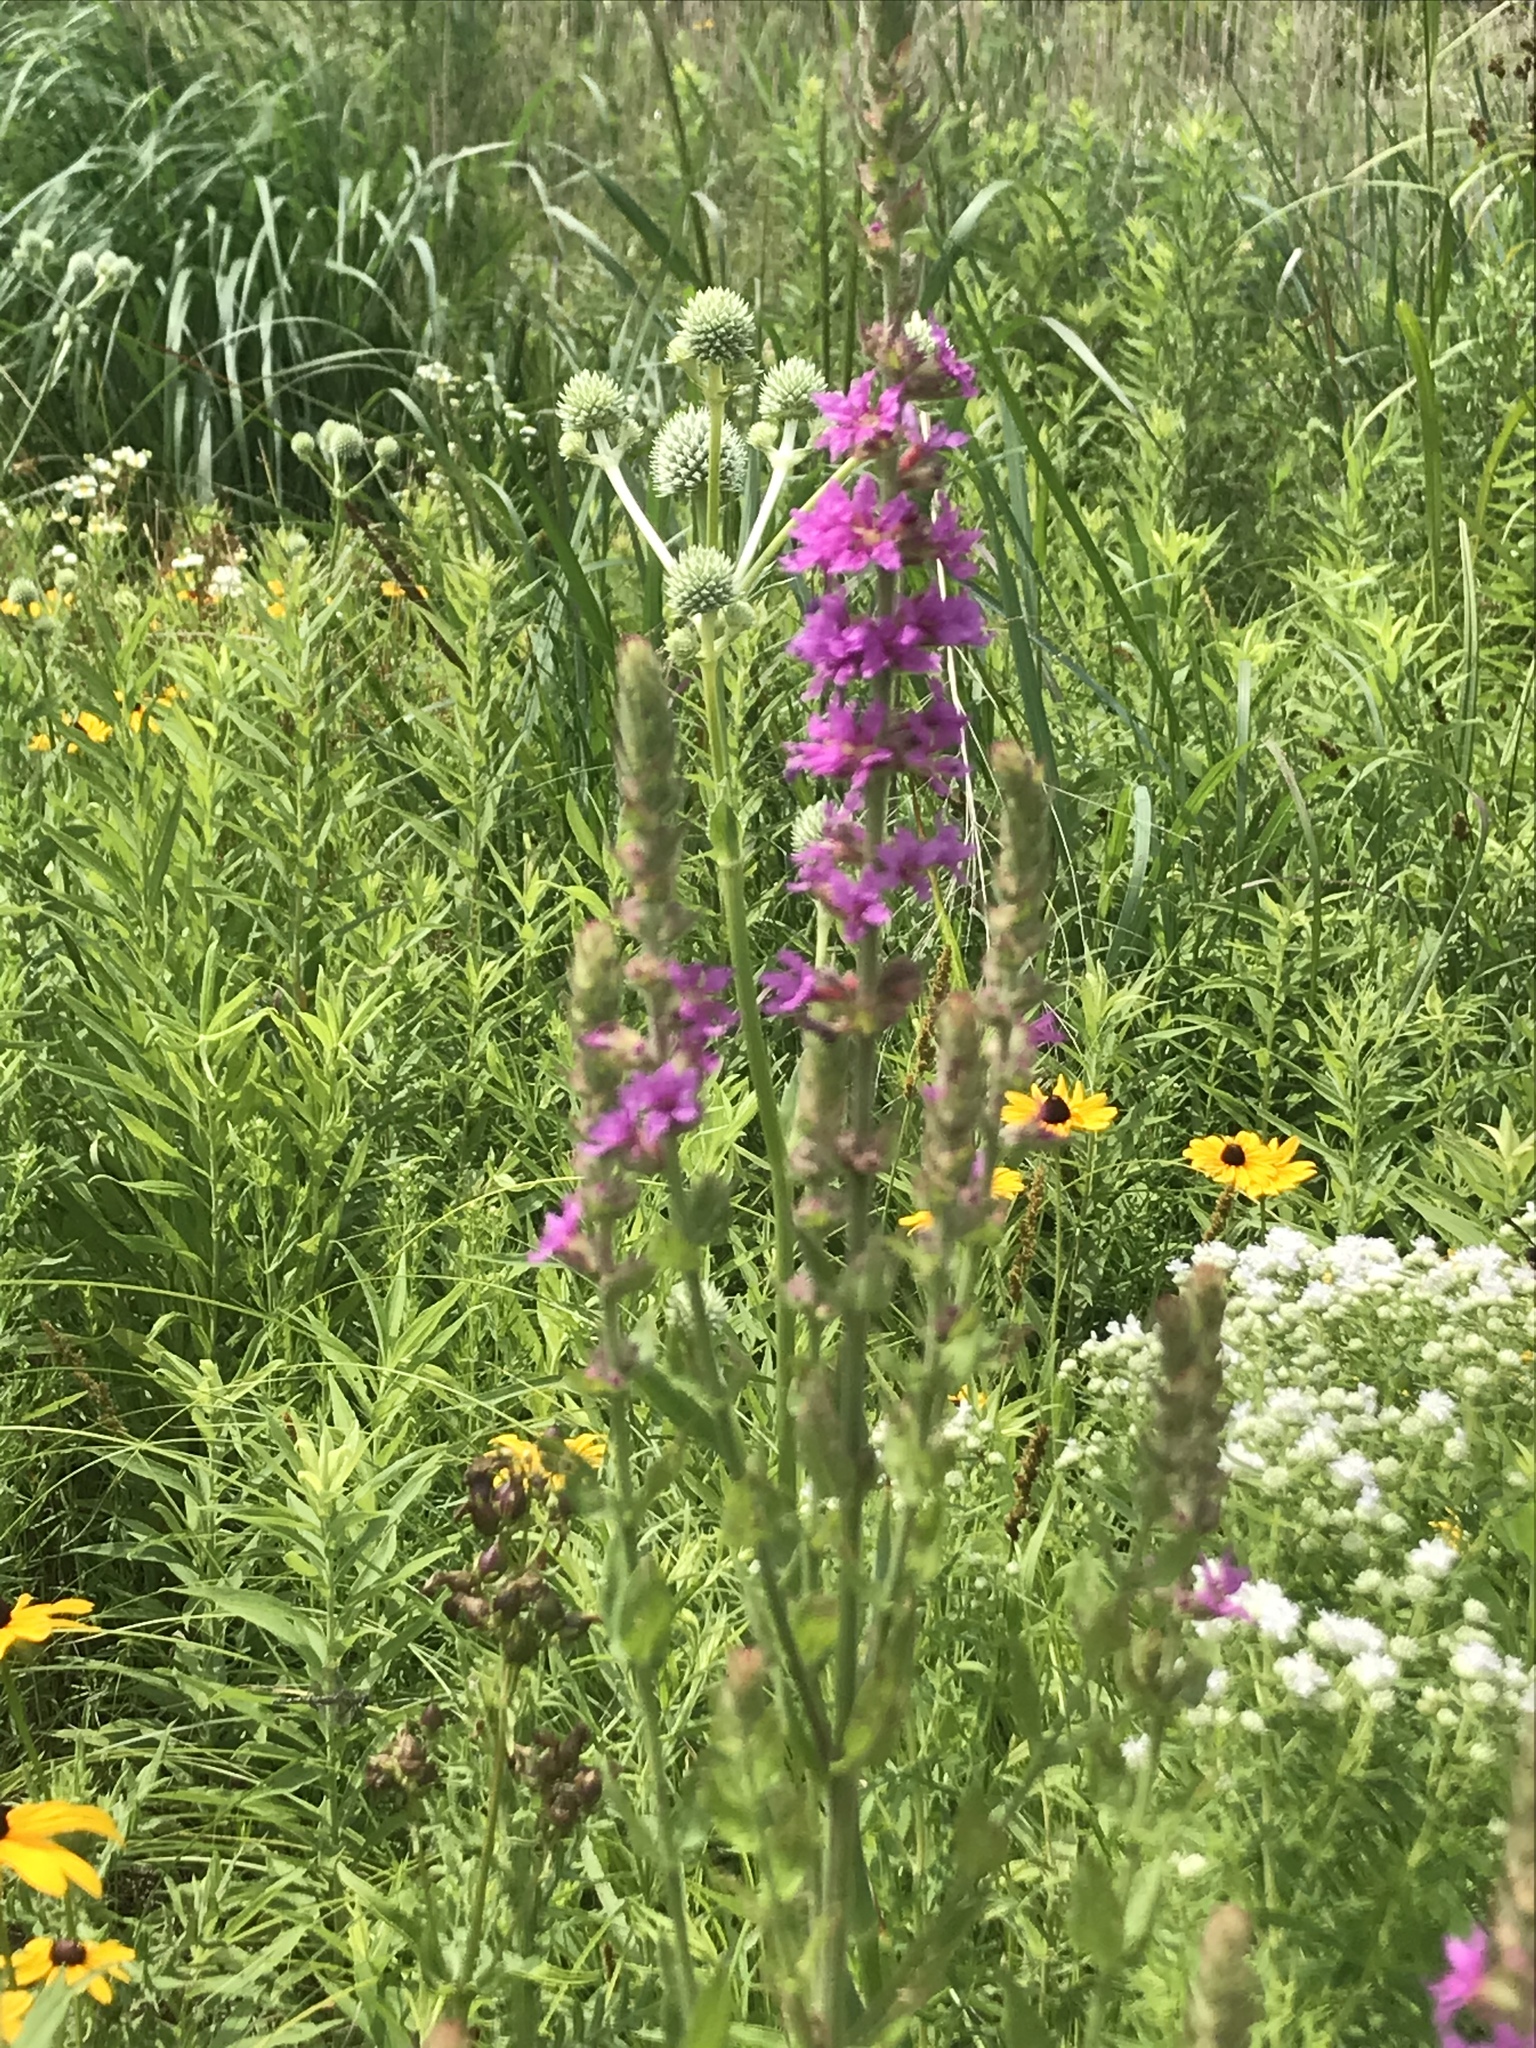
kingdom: Plantae
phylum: Tracheophyta
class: Magnoliopsida
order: Myrtales
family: Lythraceae
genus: Lythrum
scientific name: Lythrum salicaria
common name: Purple loosestrife
